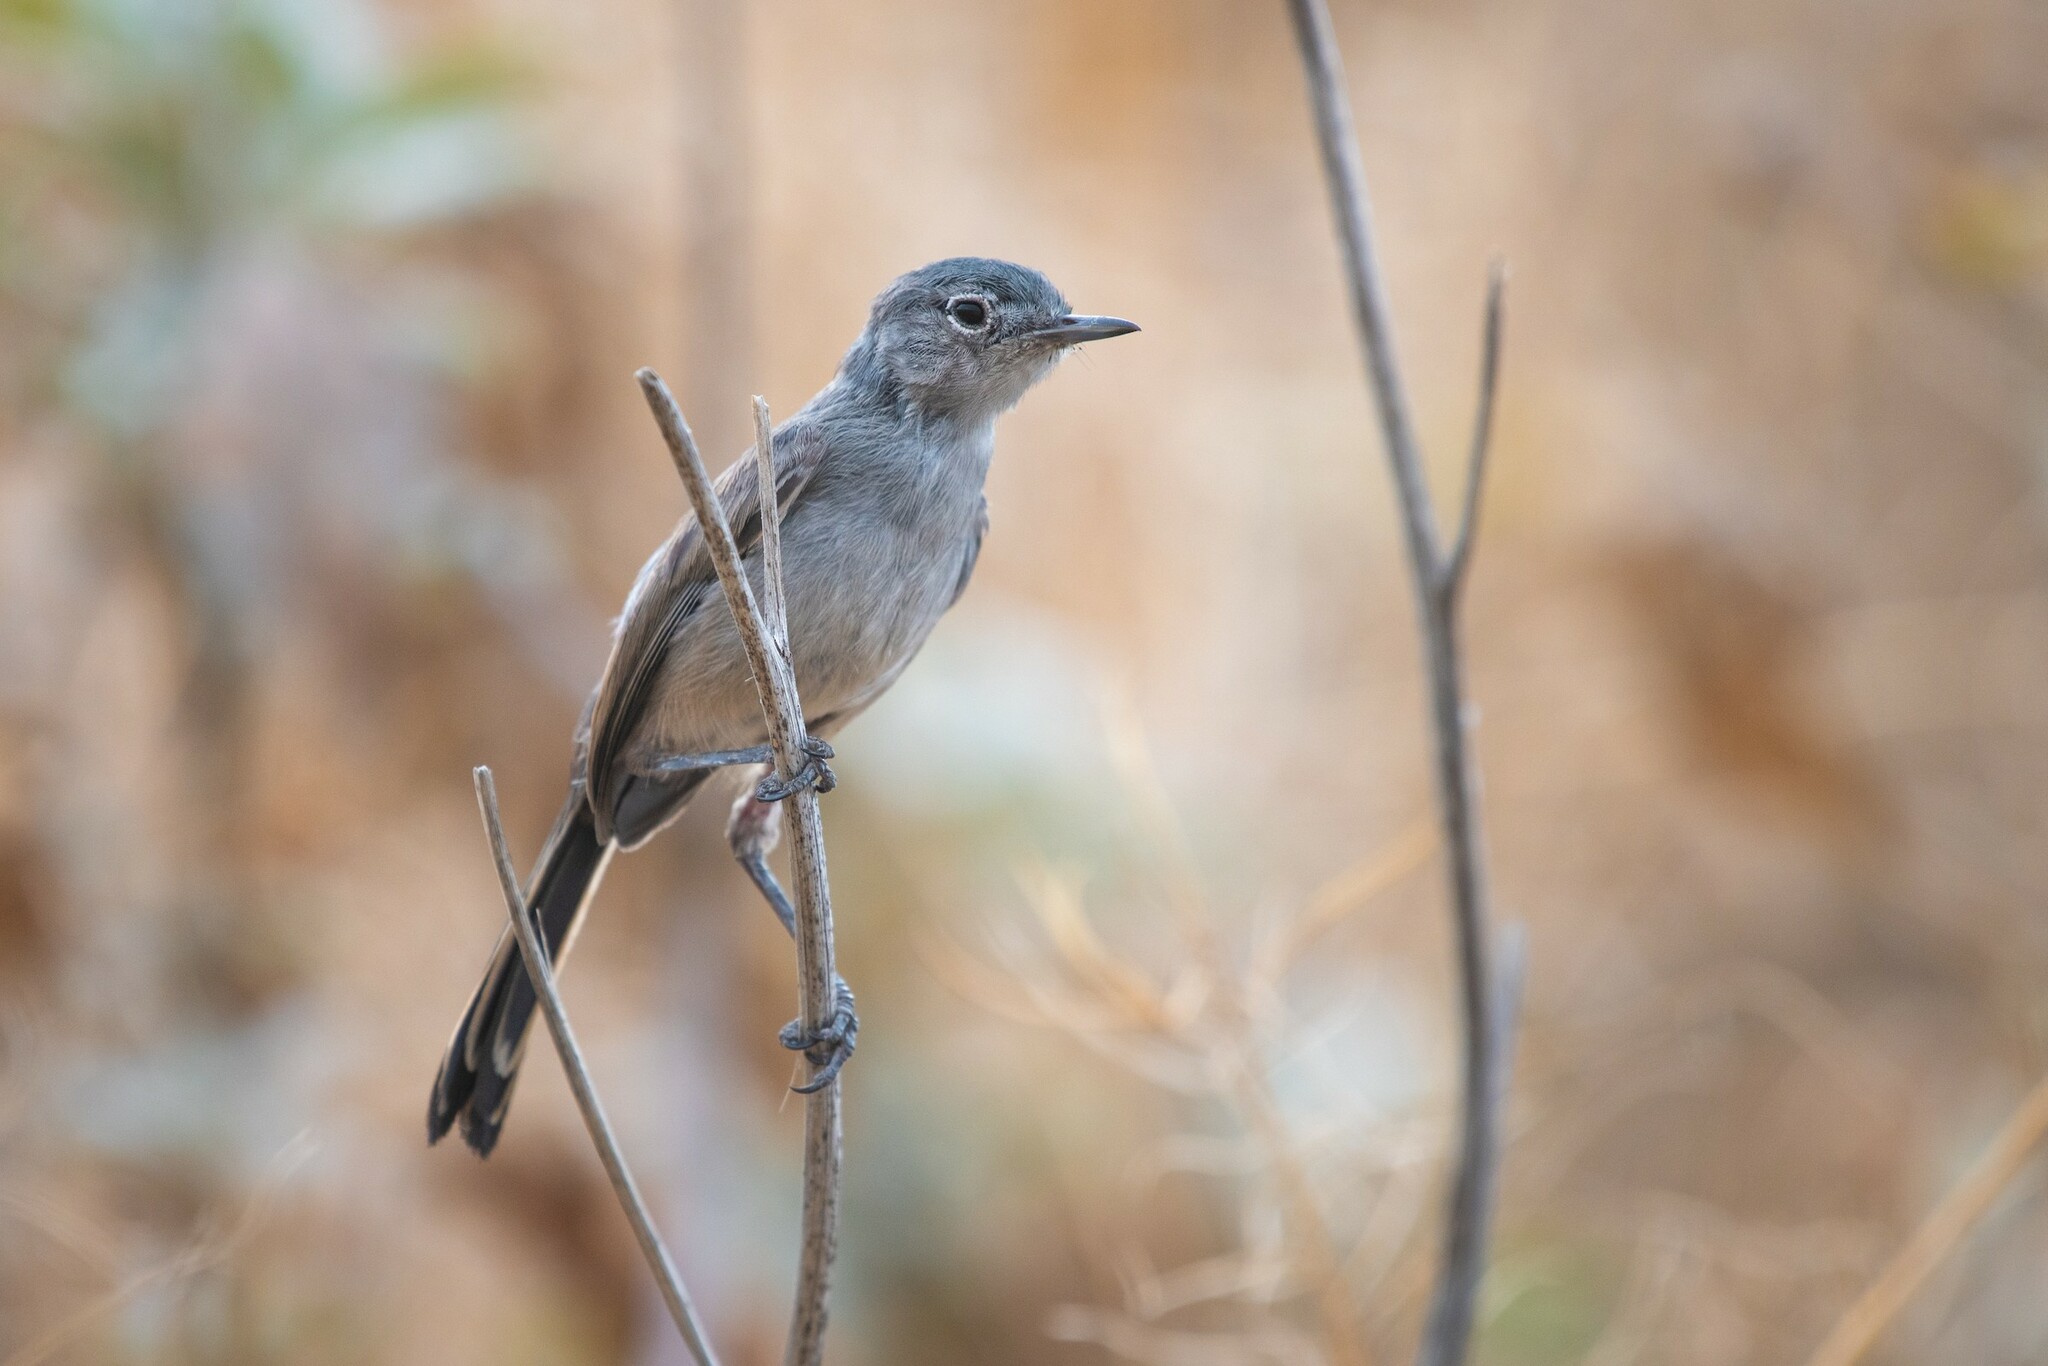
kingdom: Animalia
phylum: Chordata
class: Aves
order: Passeriformes
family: Polioptilidae
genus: Polioptila
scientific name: Polioptila californica
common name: California gnatcatcher
